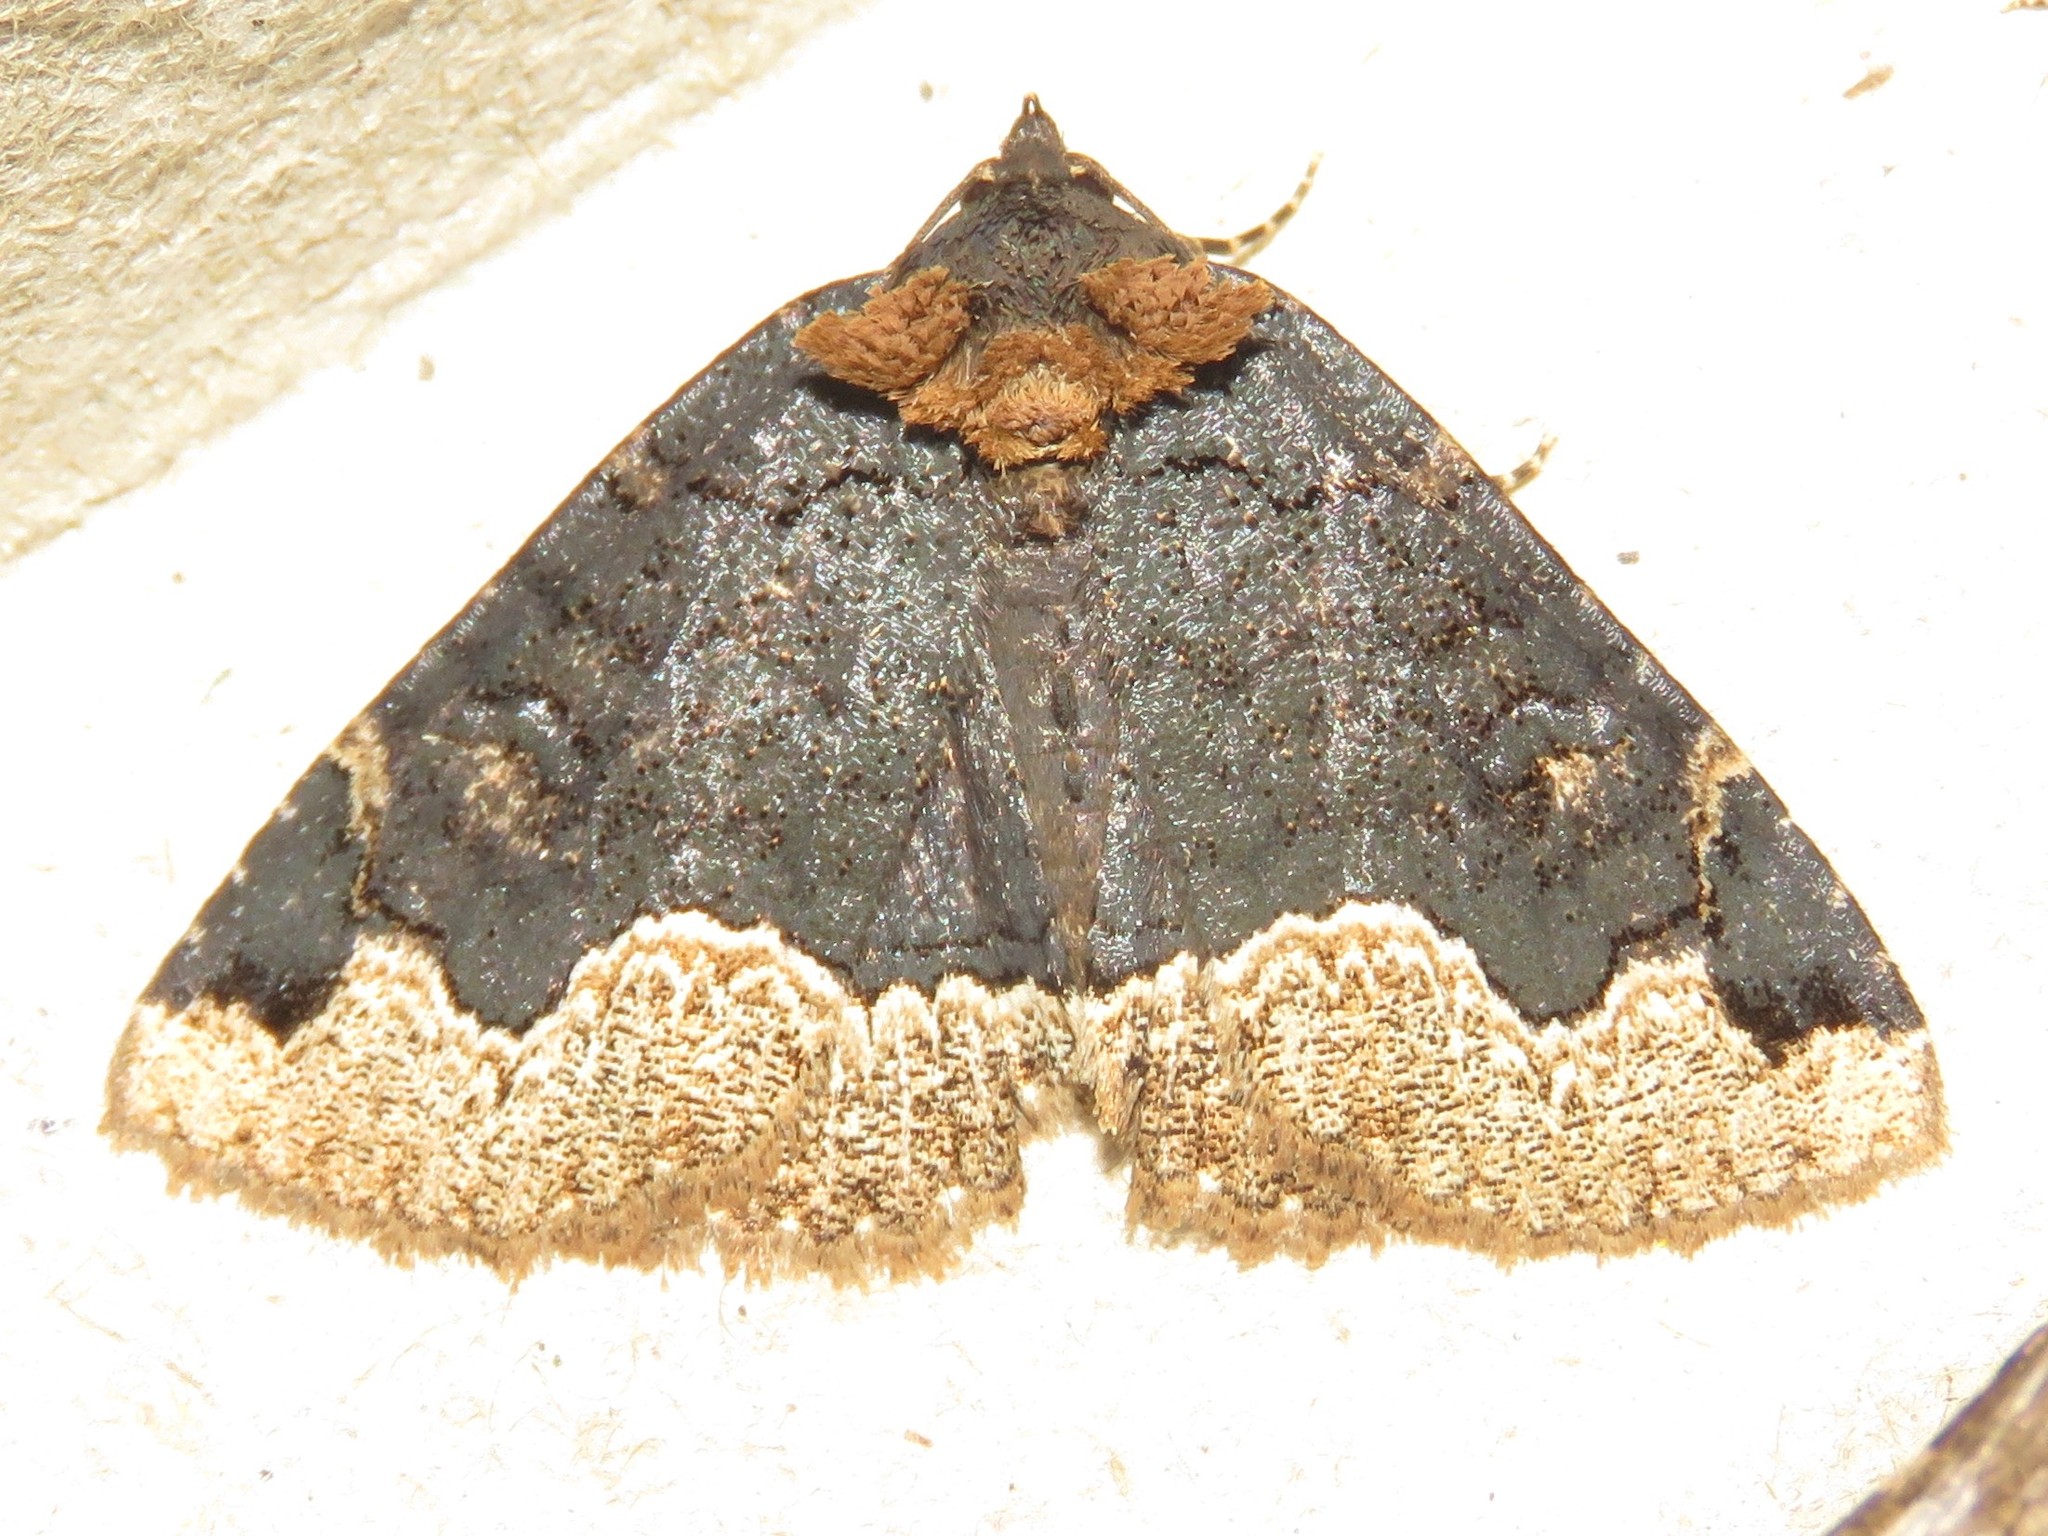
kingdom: Animalia
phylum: Arthropoda
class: Insecta
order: Lepidoptera
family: Erebidae
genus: Zale
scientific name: Zale horrida
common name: Horrid zale moth
